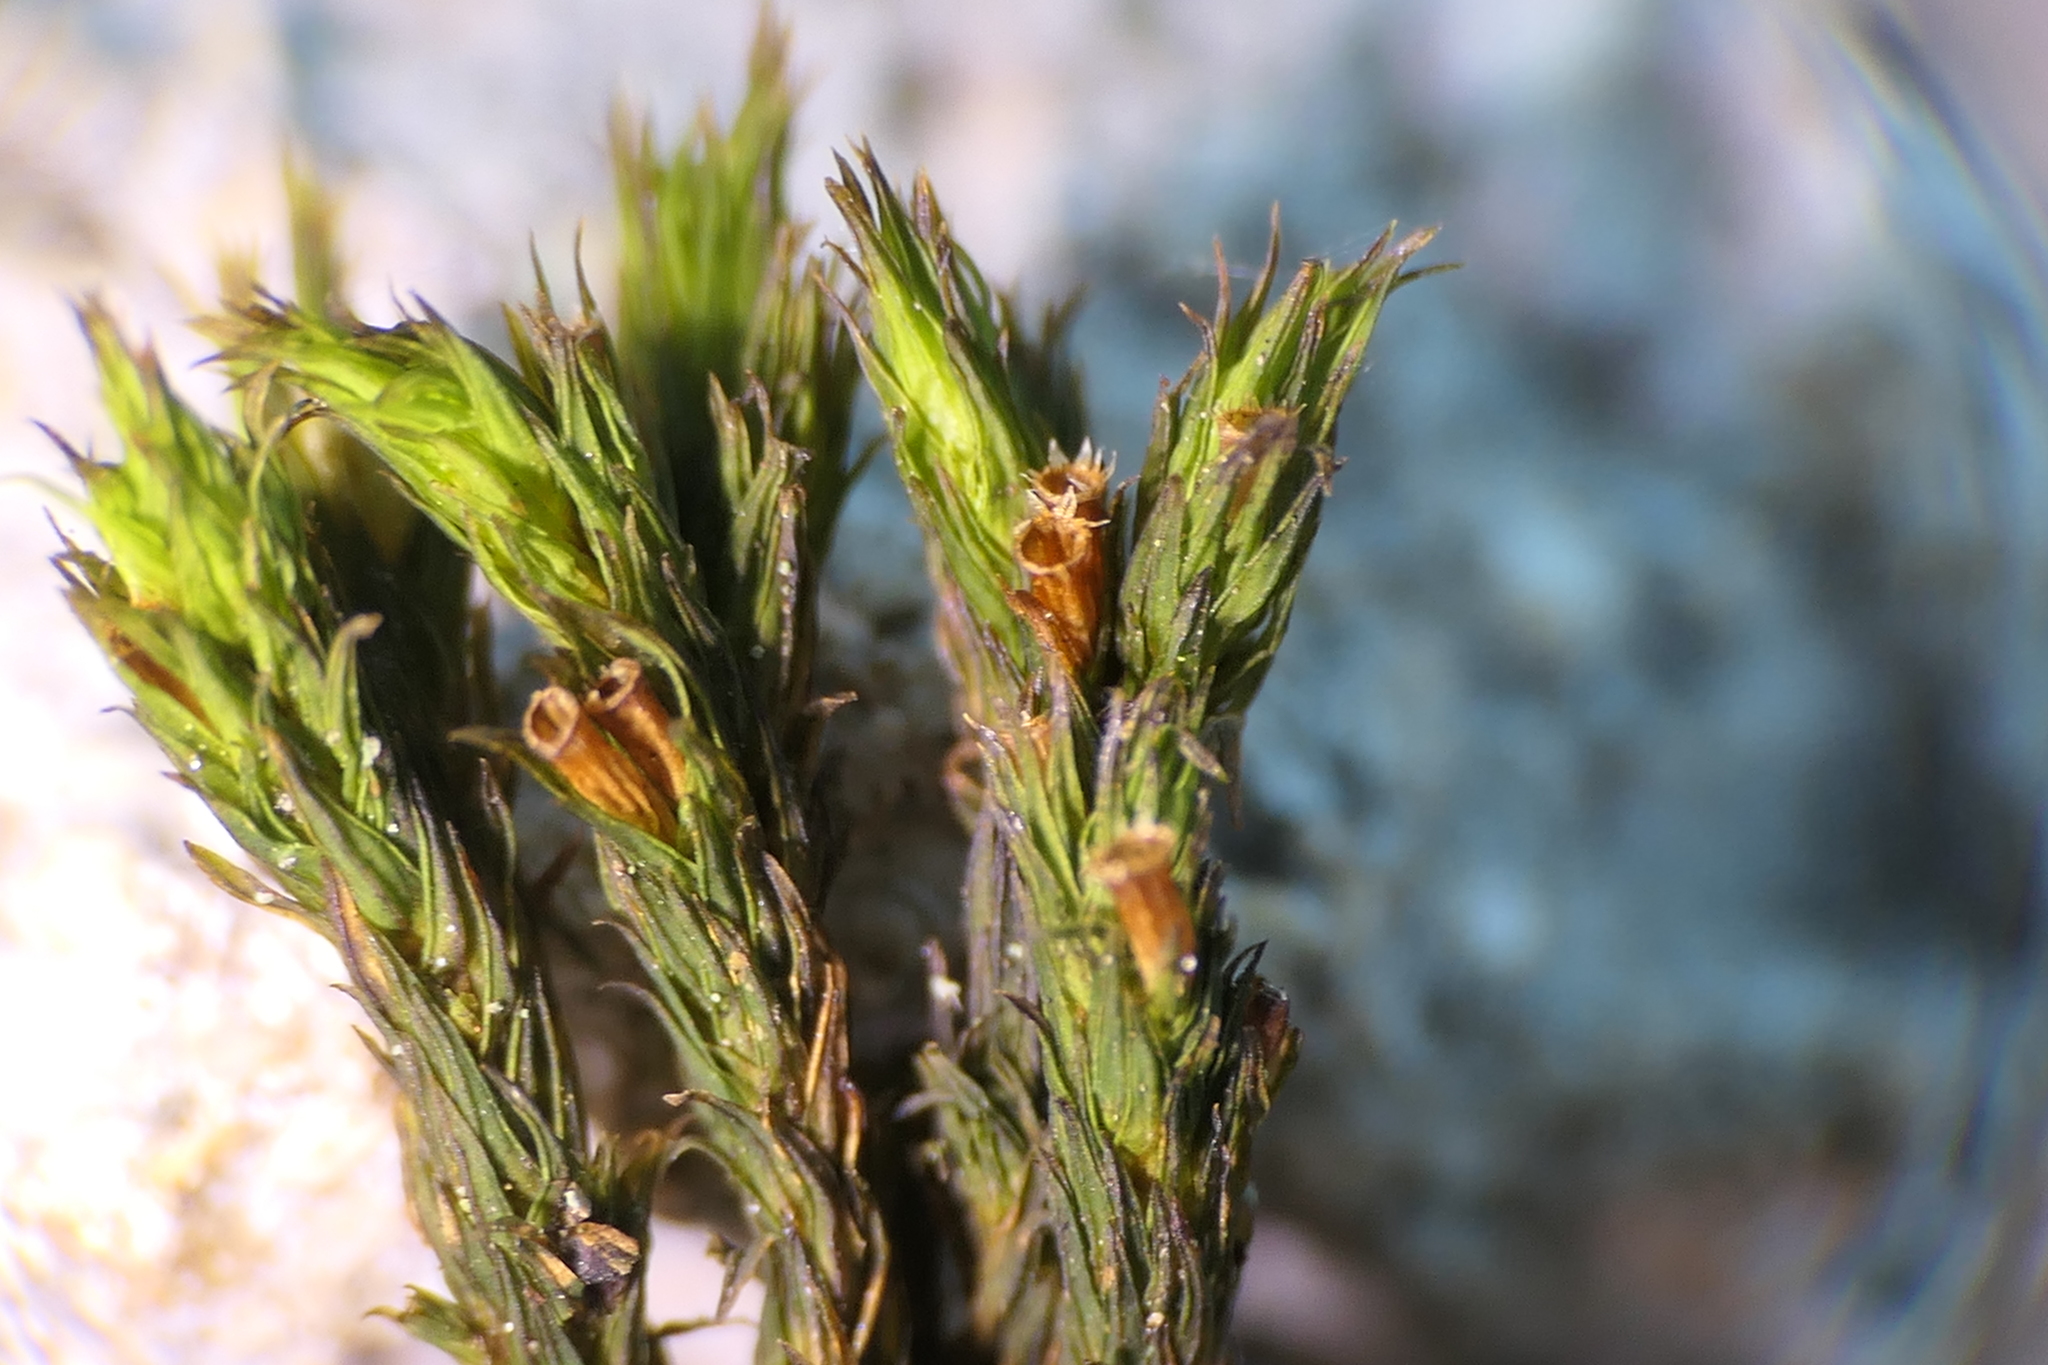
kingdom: Plantae
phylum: Bryophyta
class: Bryopsida
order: Orthotrichales
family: Orthotrichaceae
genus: Lewinskya
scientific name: Lewinskya rupestris
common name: Rock bristle-moss
